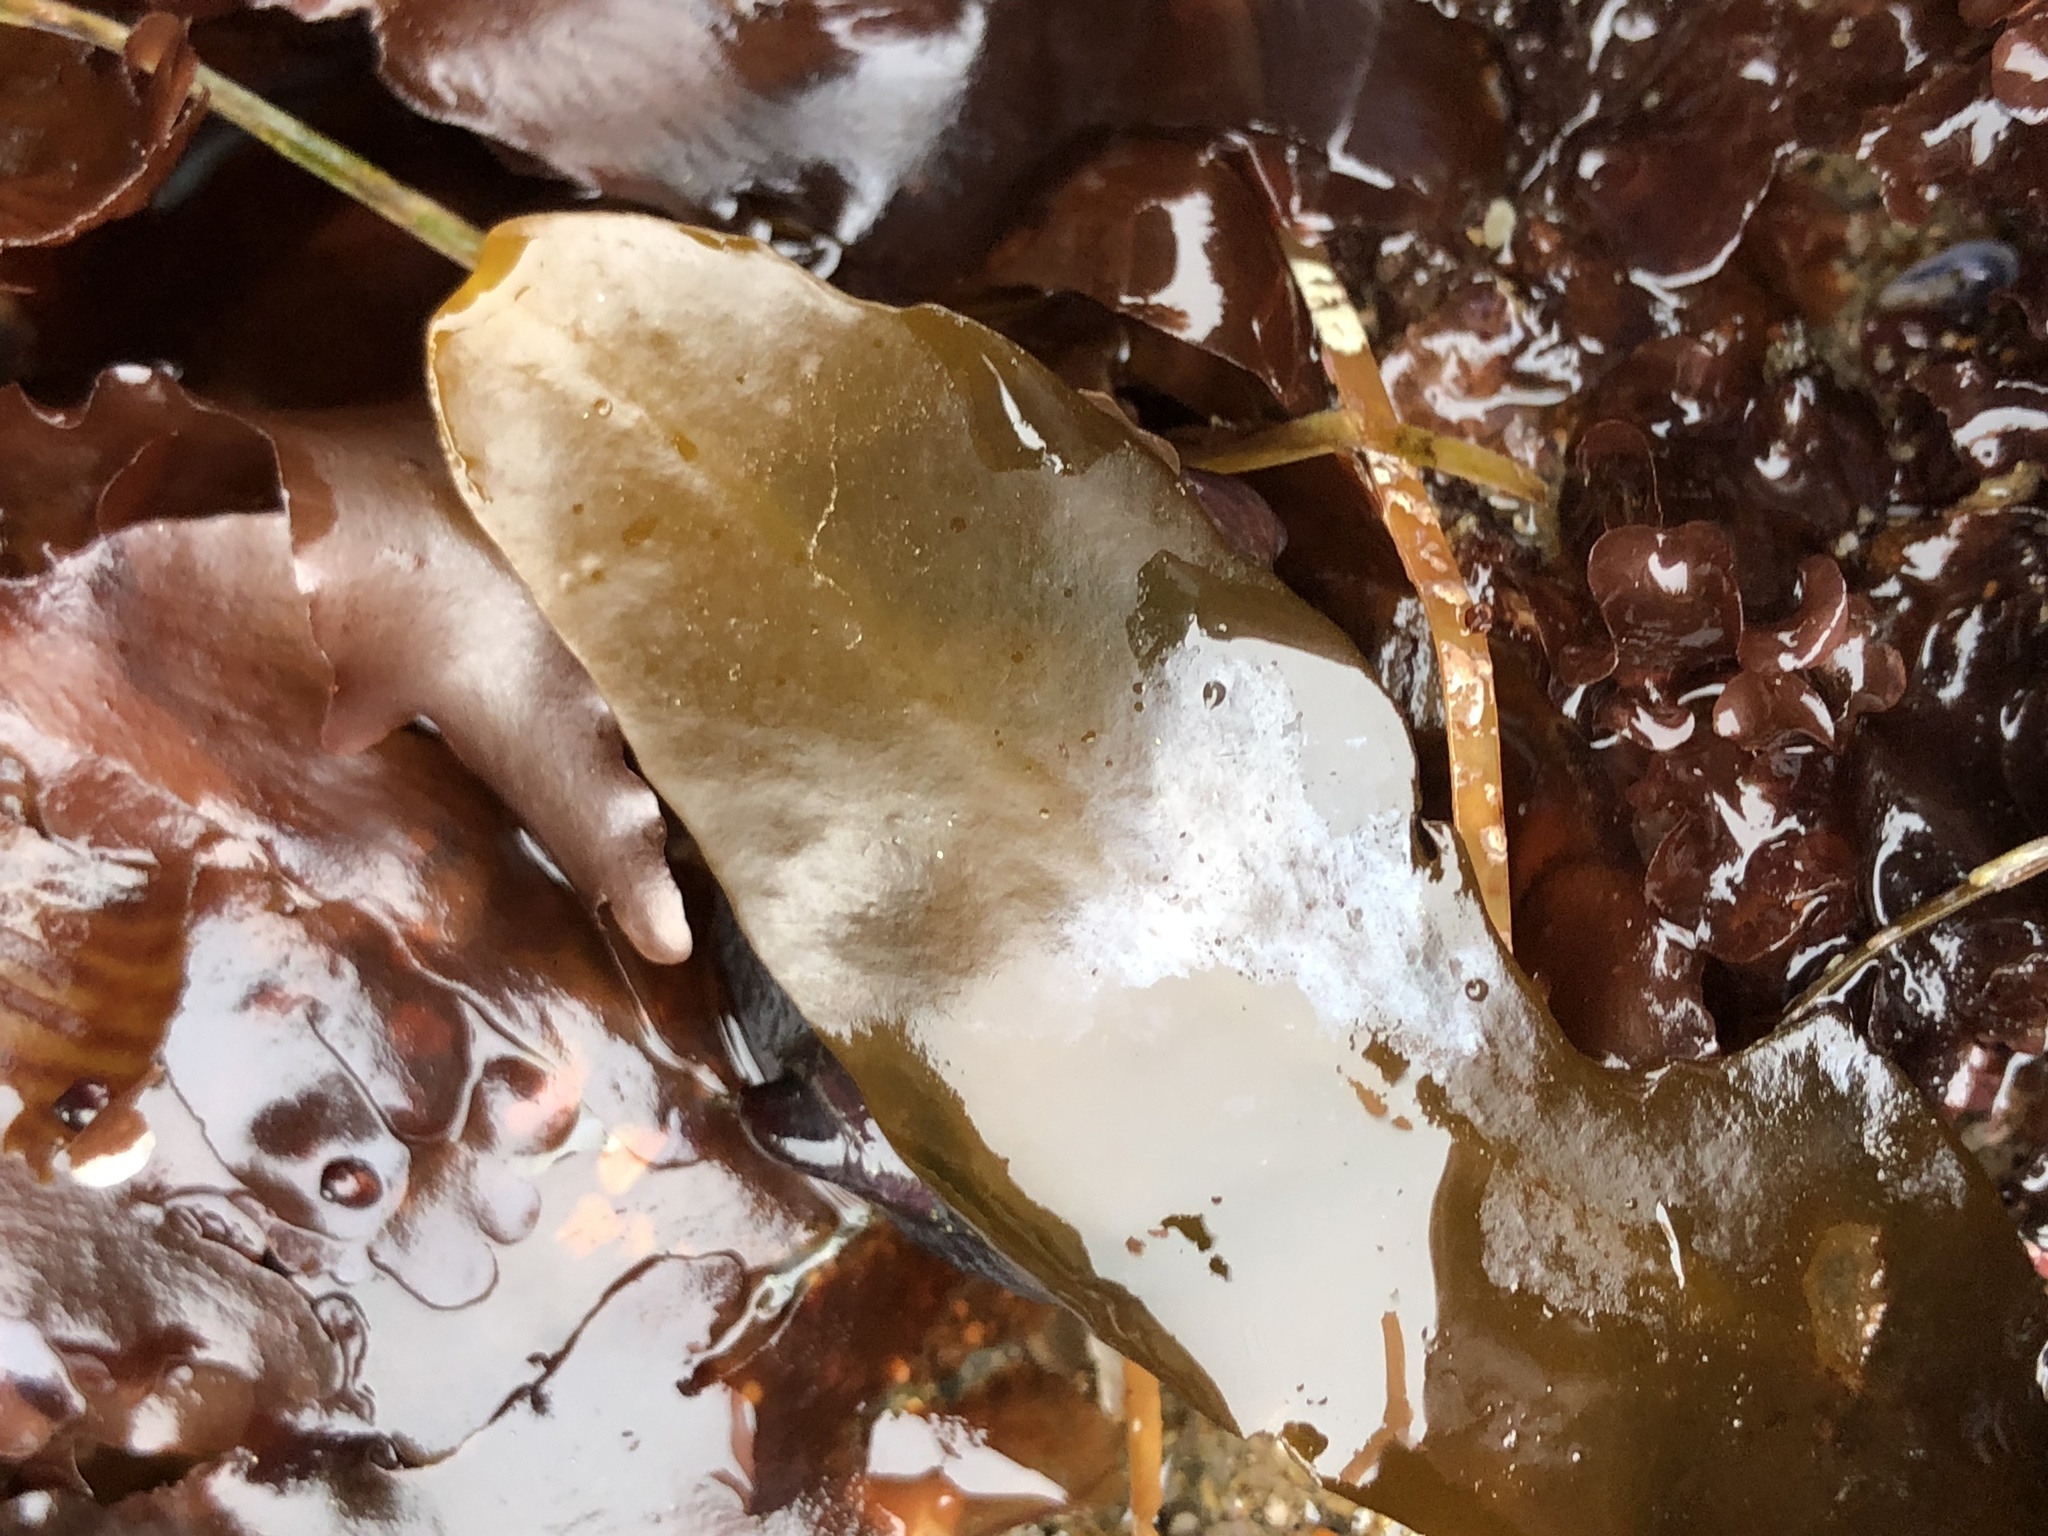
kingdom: Chromista
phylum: Ochrophyta
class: Phaeophyceae
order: Fucales
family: Sargassaceae
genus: Stephanocystis
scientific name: Stephanocystis
